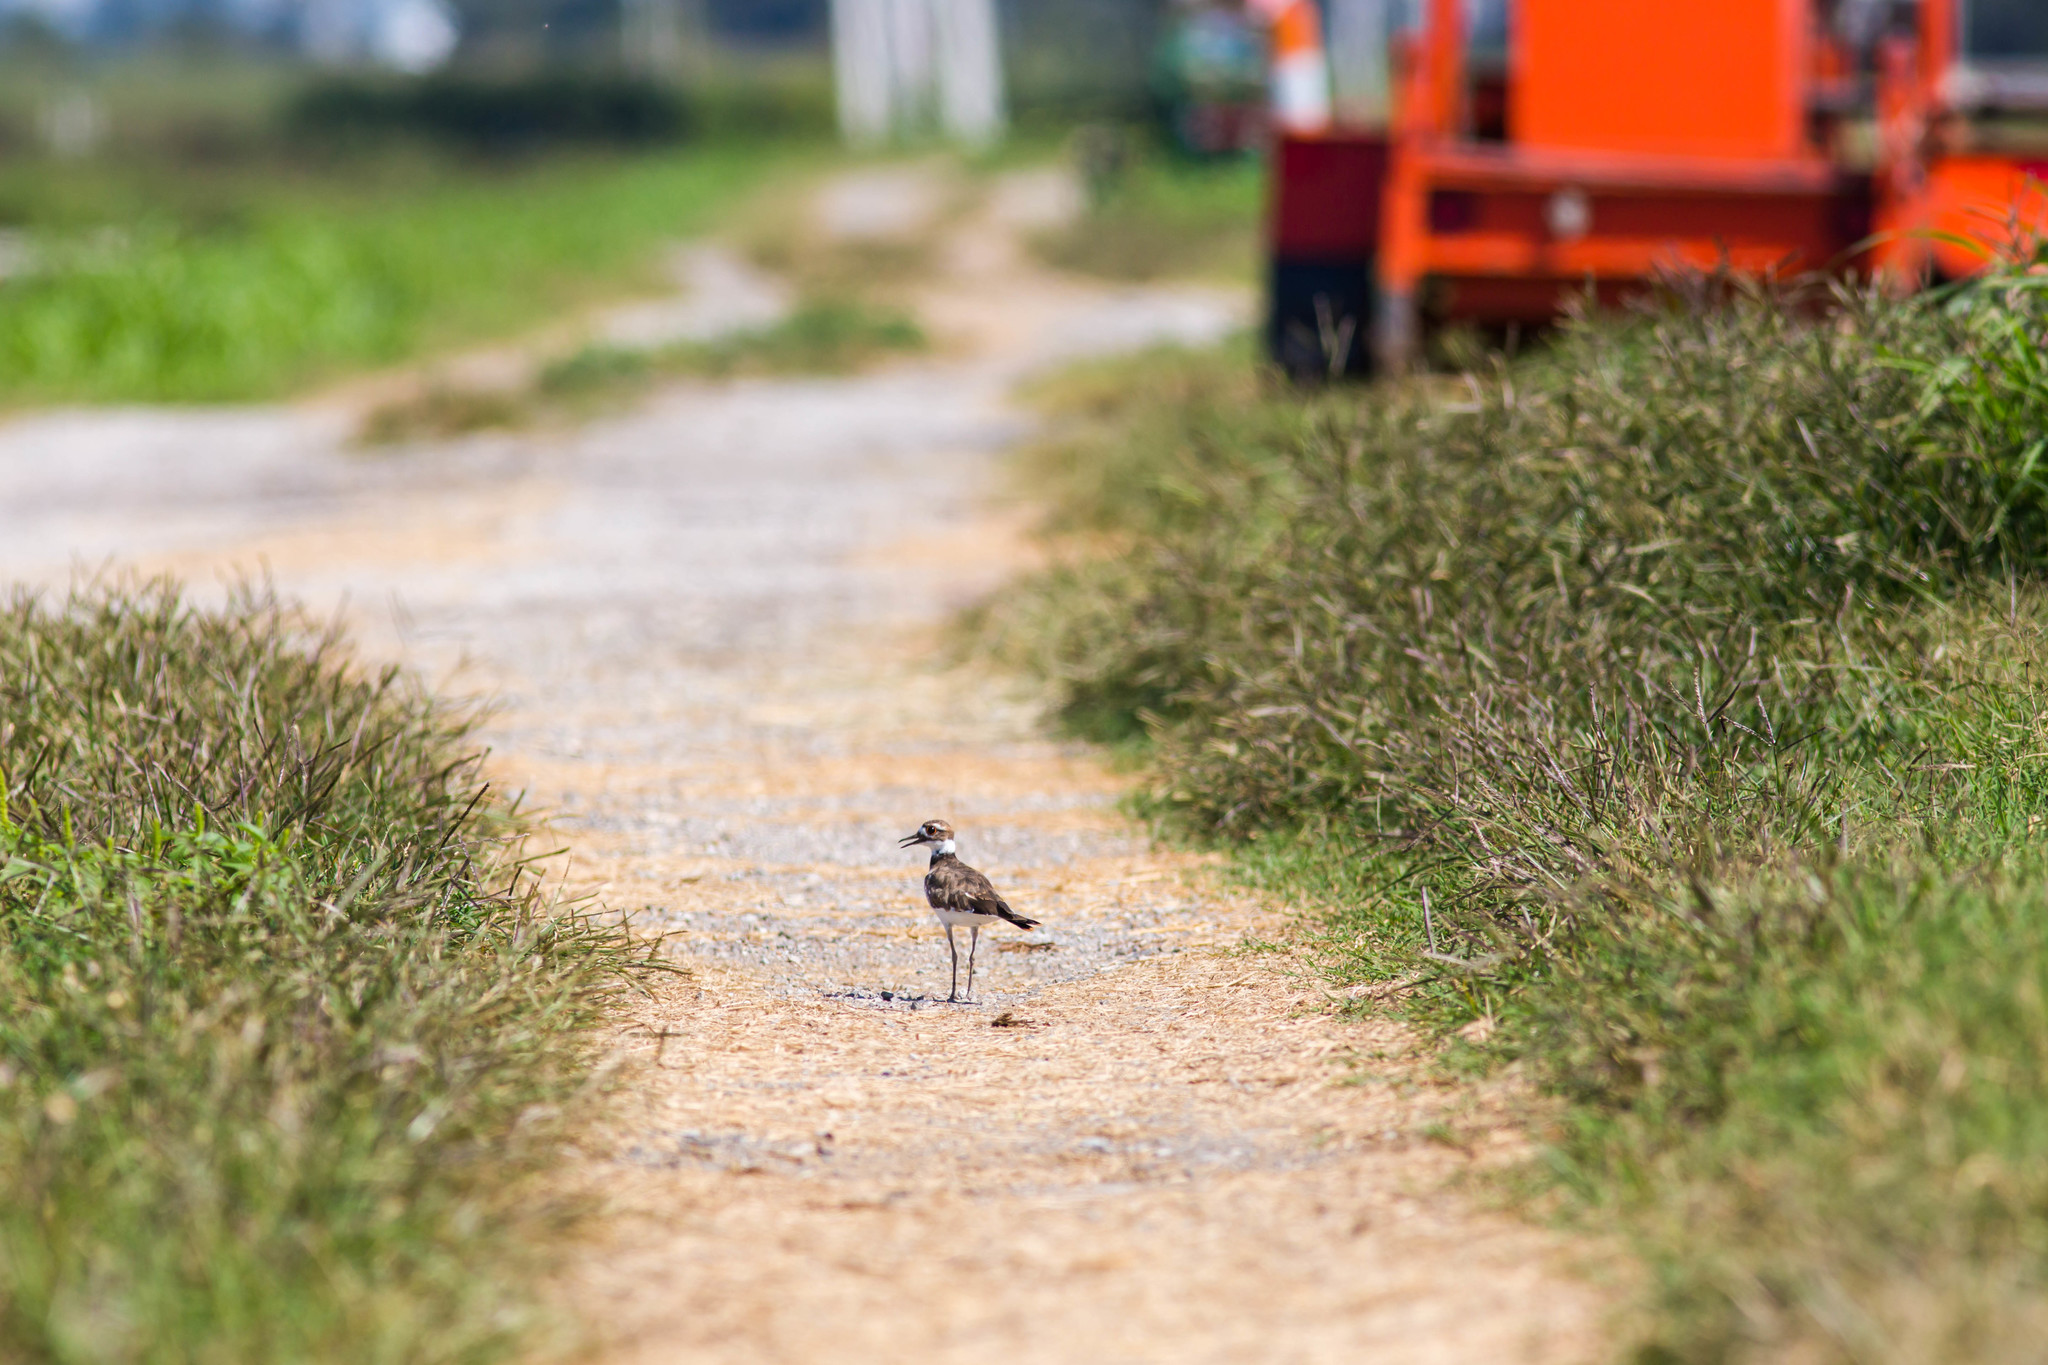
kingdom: Animalia
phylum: Chordata
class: Aves
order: Charadriiformes
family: Charadriidae
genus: Charadrius
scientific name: Charadrius vociferus
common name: Killdeer
